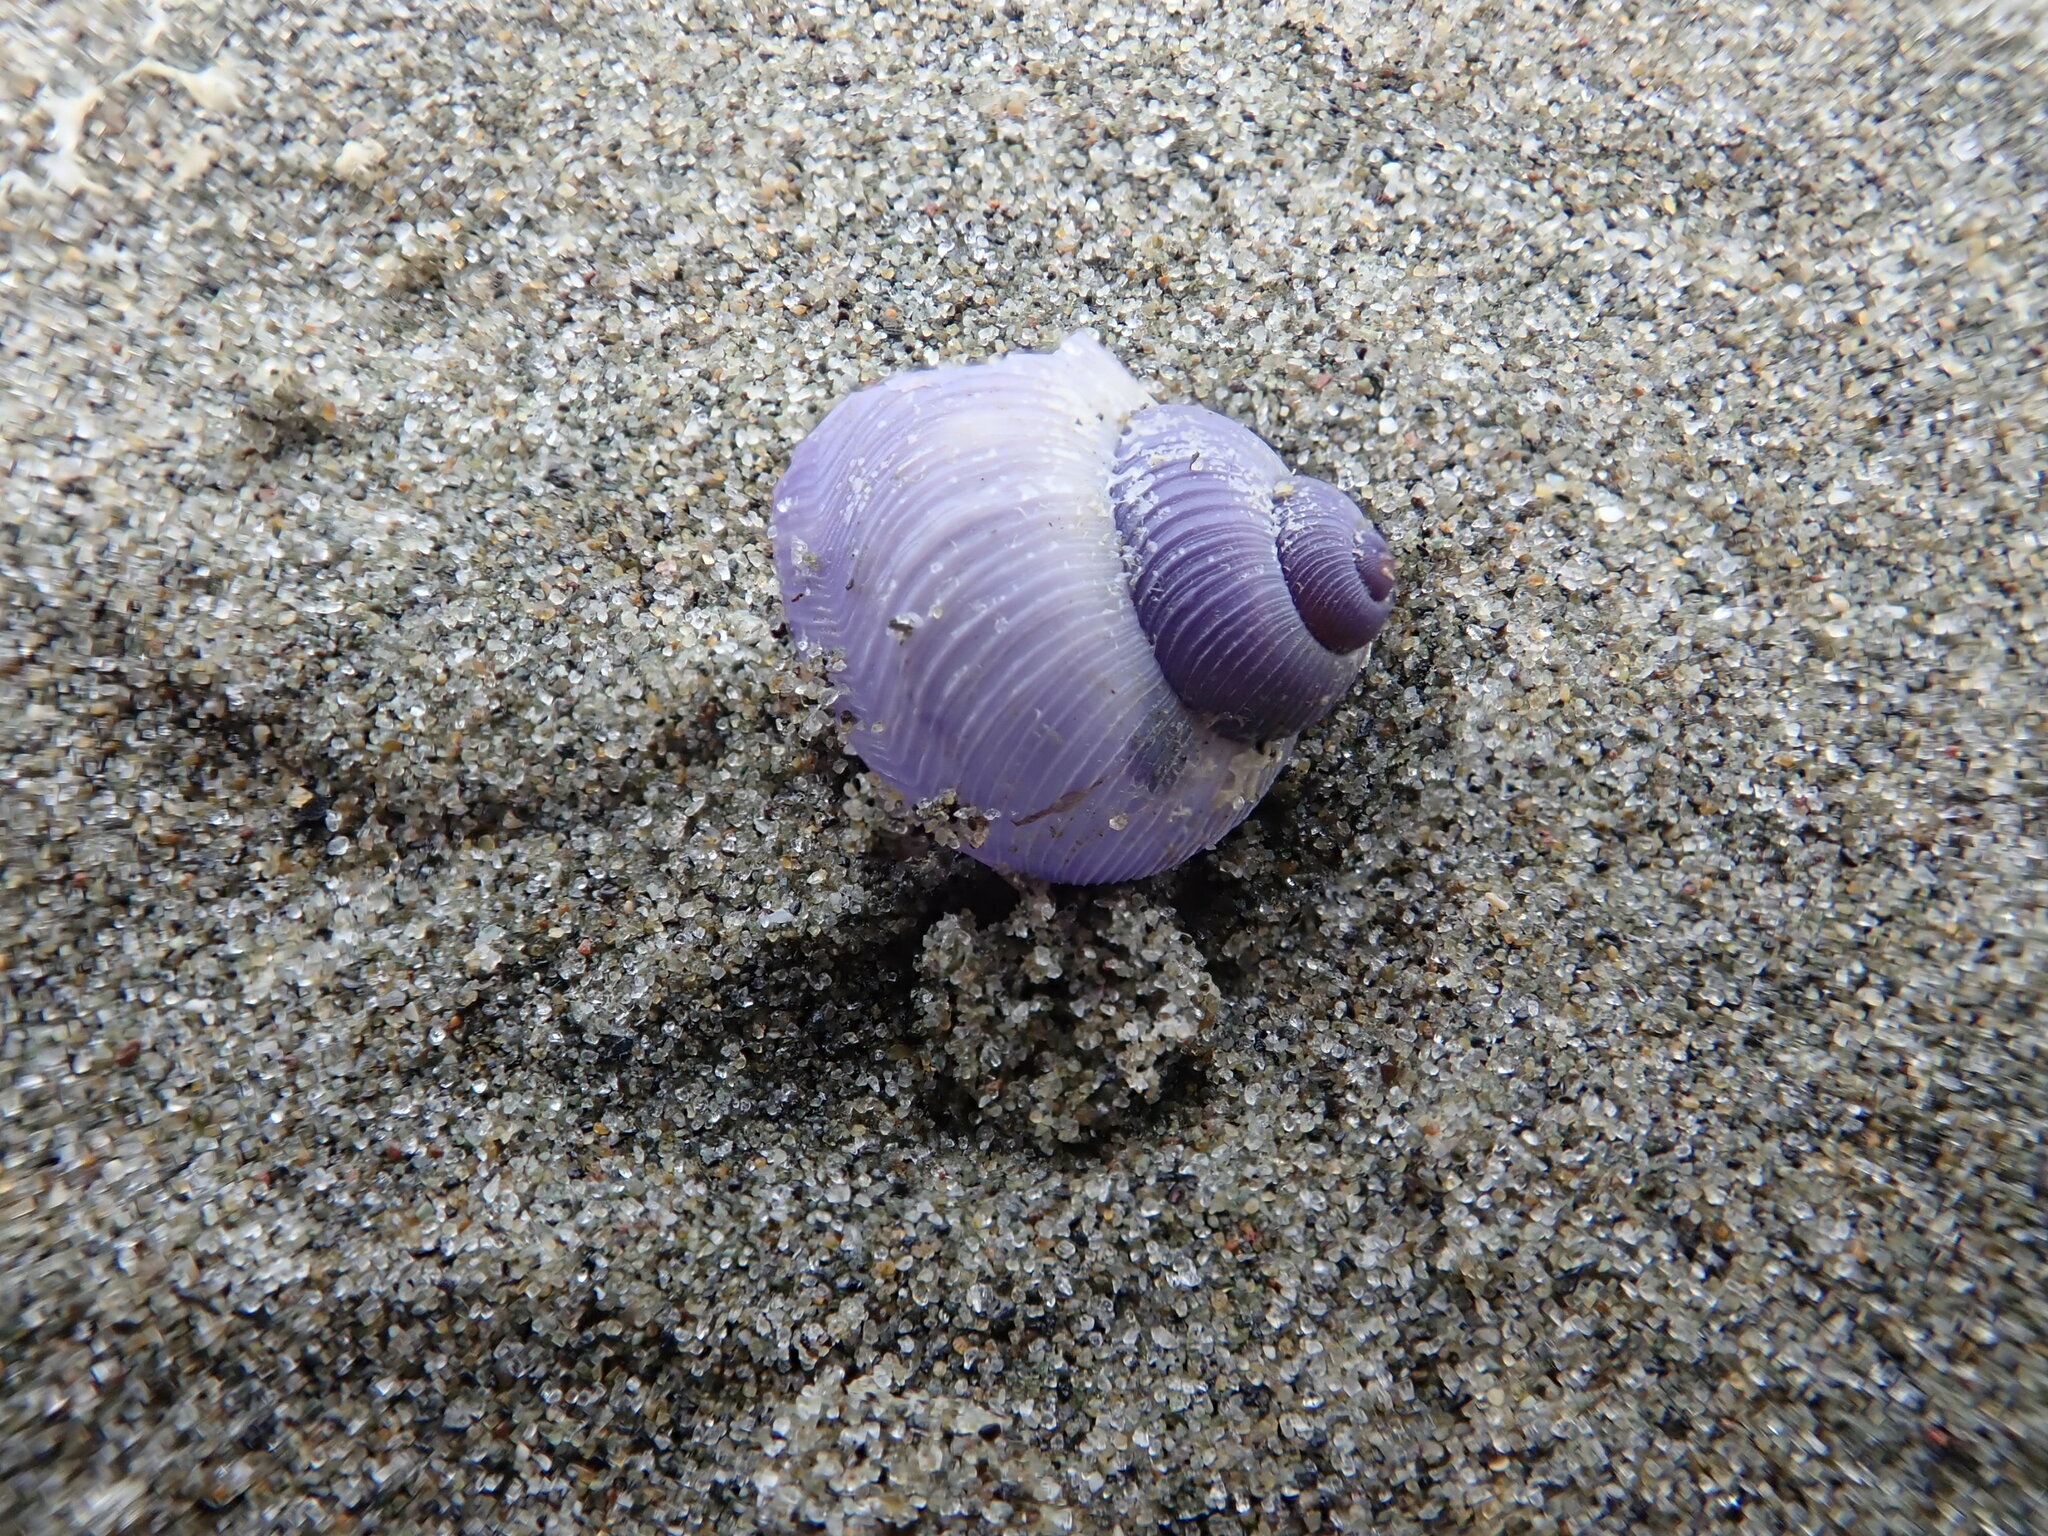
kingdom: Animalia
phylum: Mollusca
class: Gastropoda
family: Epitoniidae
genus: Janthina
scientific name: Janthina exigua
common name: Dwarf janthina
